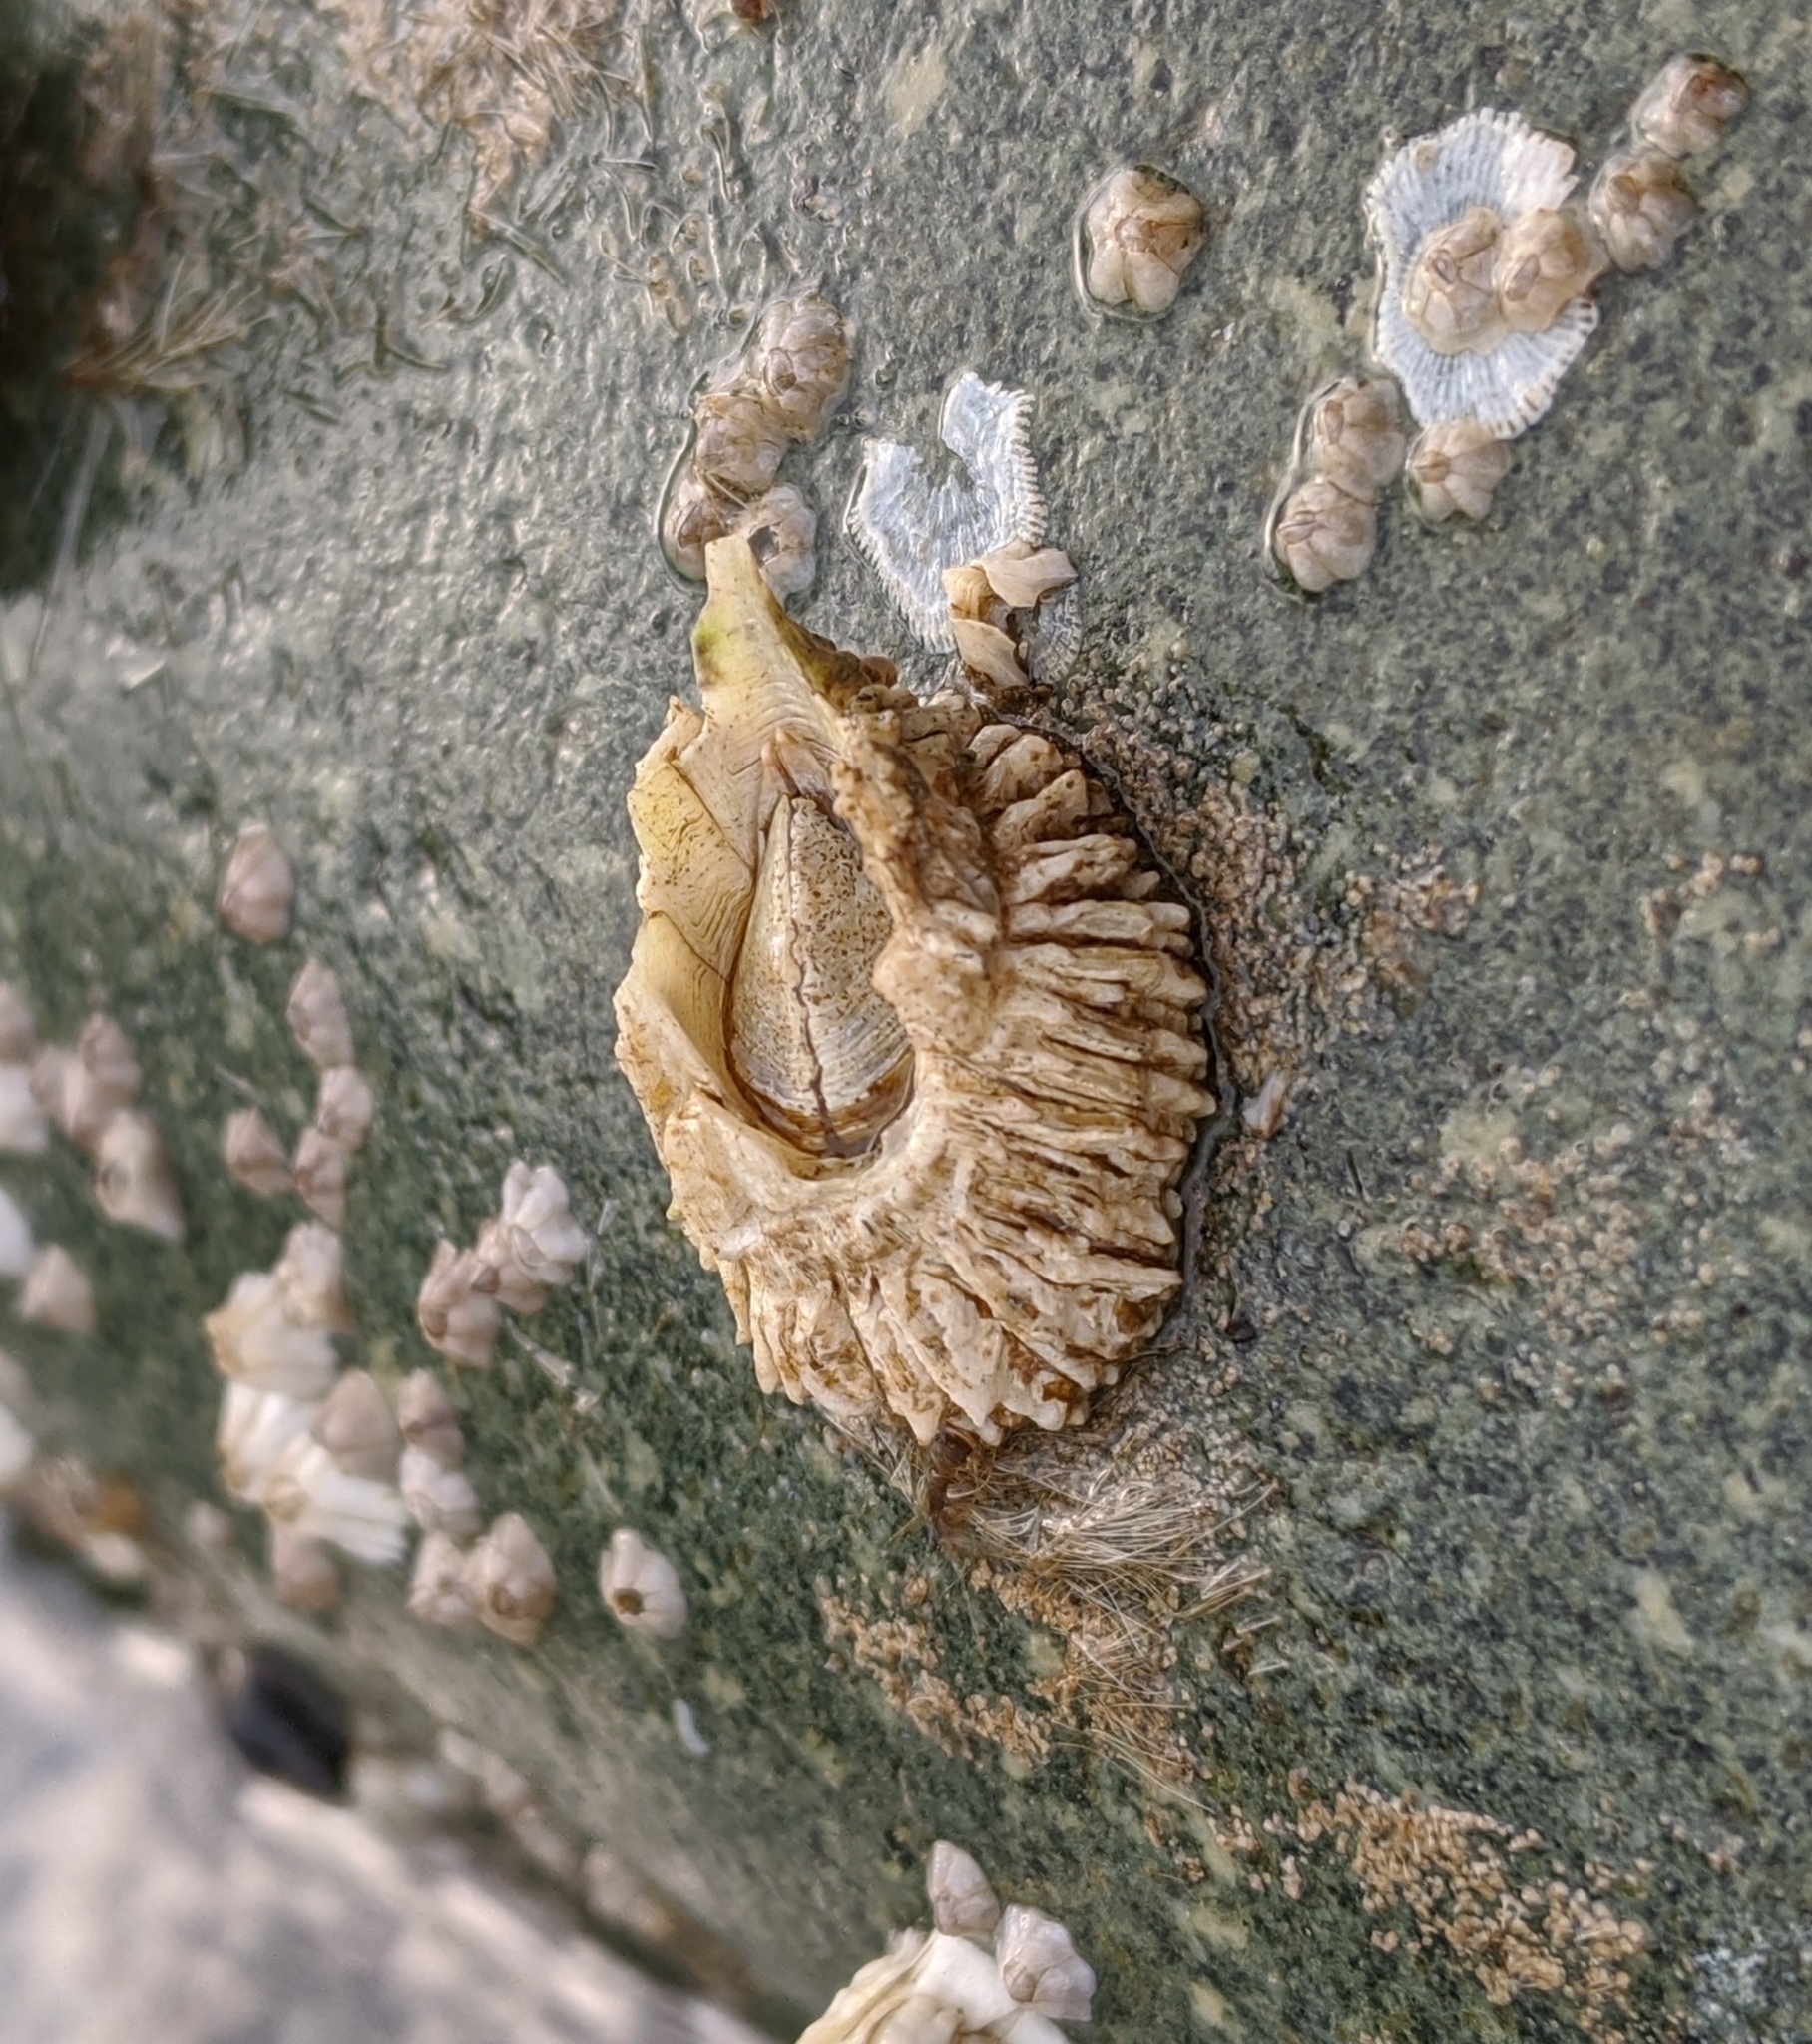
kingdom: Animalia
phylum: Arthropoda
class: Maxillopoda
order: Sessilia
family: Archaeobalanidae
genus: Semibalanus
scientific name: Semibalanus cariosus
